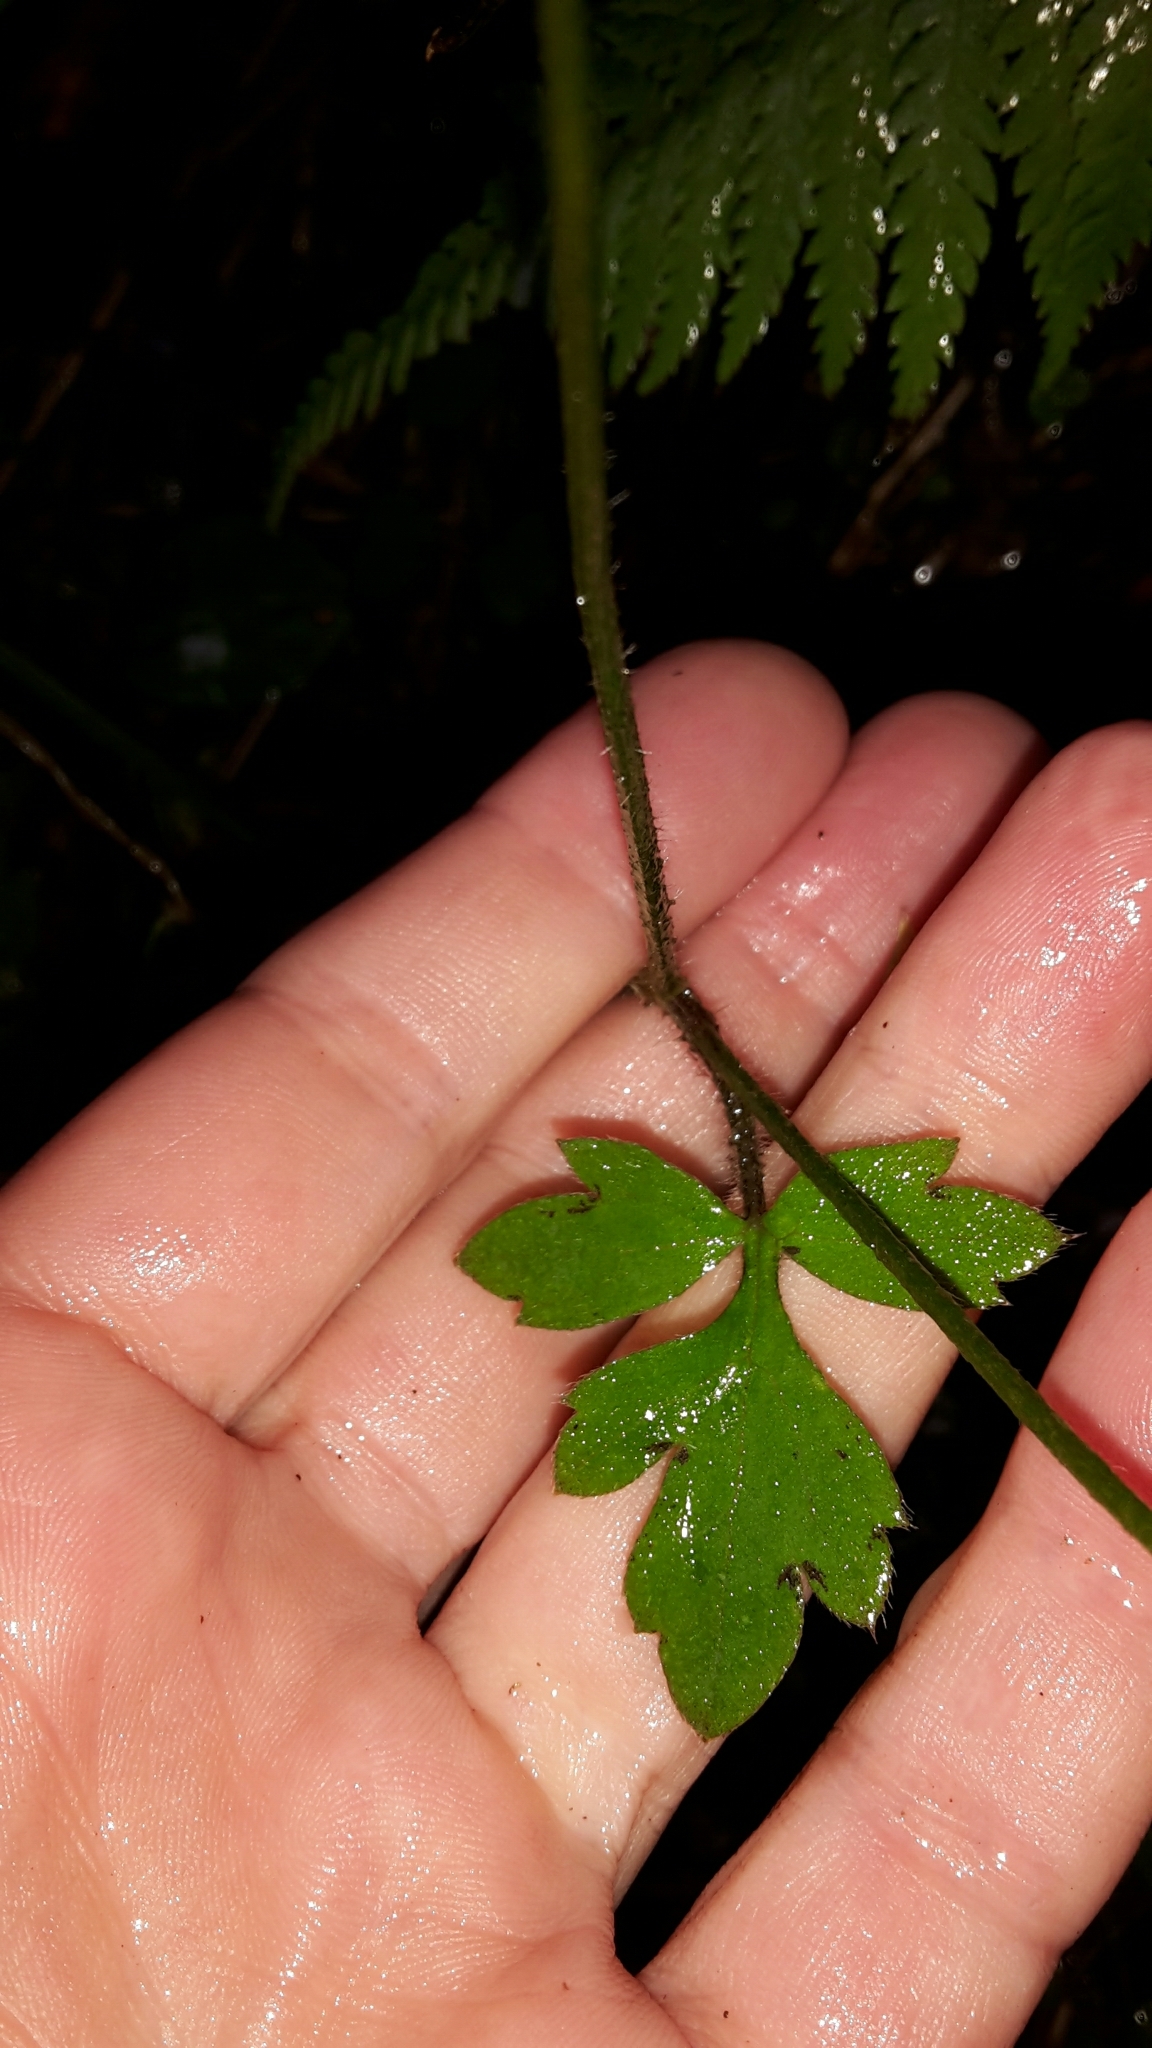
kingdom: Plantae
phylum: Tracheophyta
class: Magnoliopsida
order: Ranunculales
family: Ranunculaceae
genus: Ranunculus
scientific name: Ranunculus reflexus
